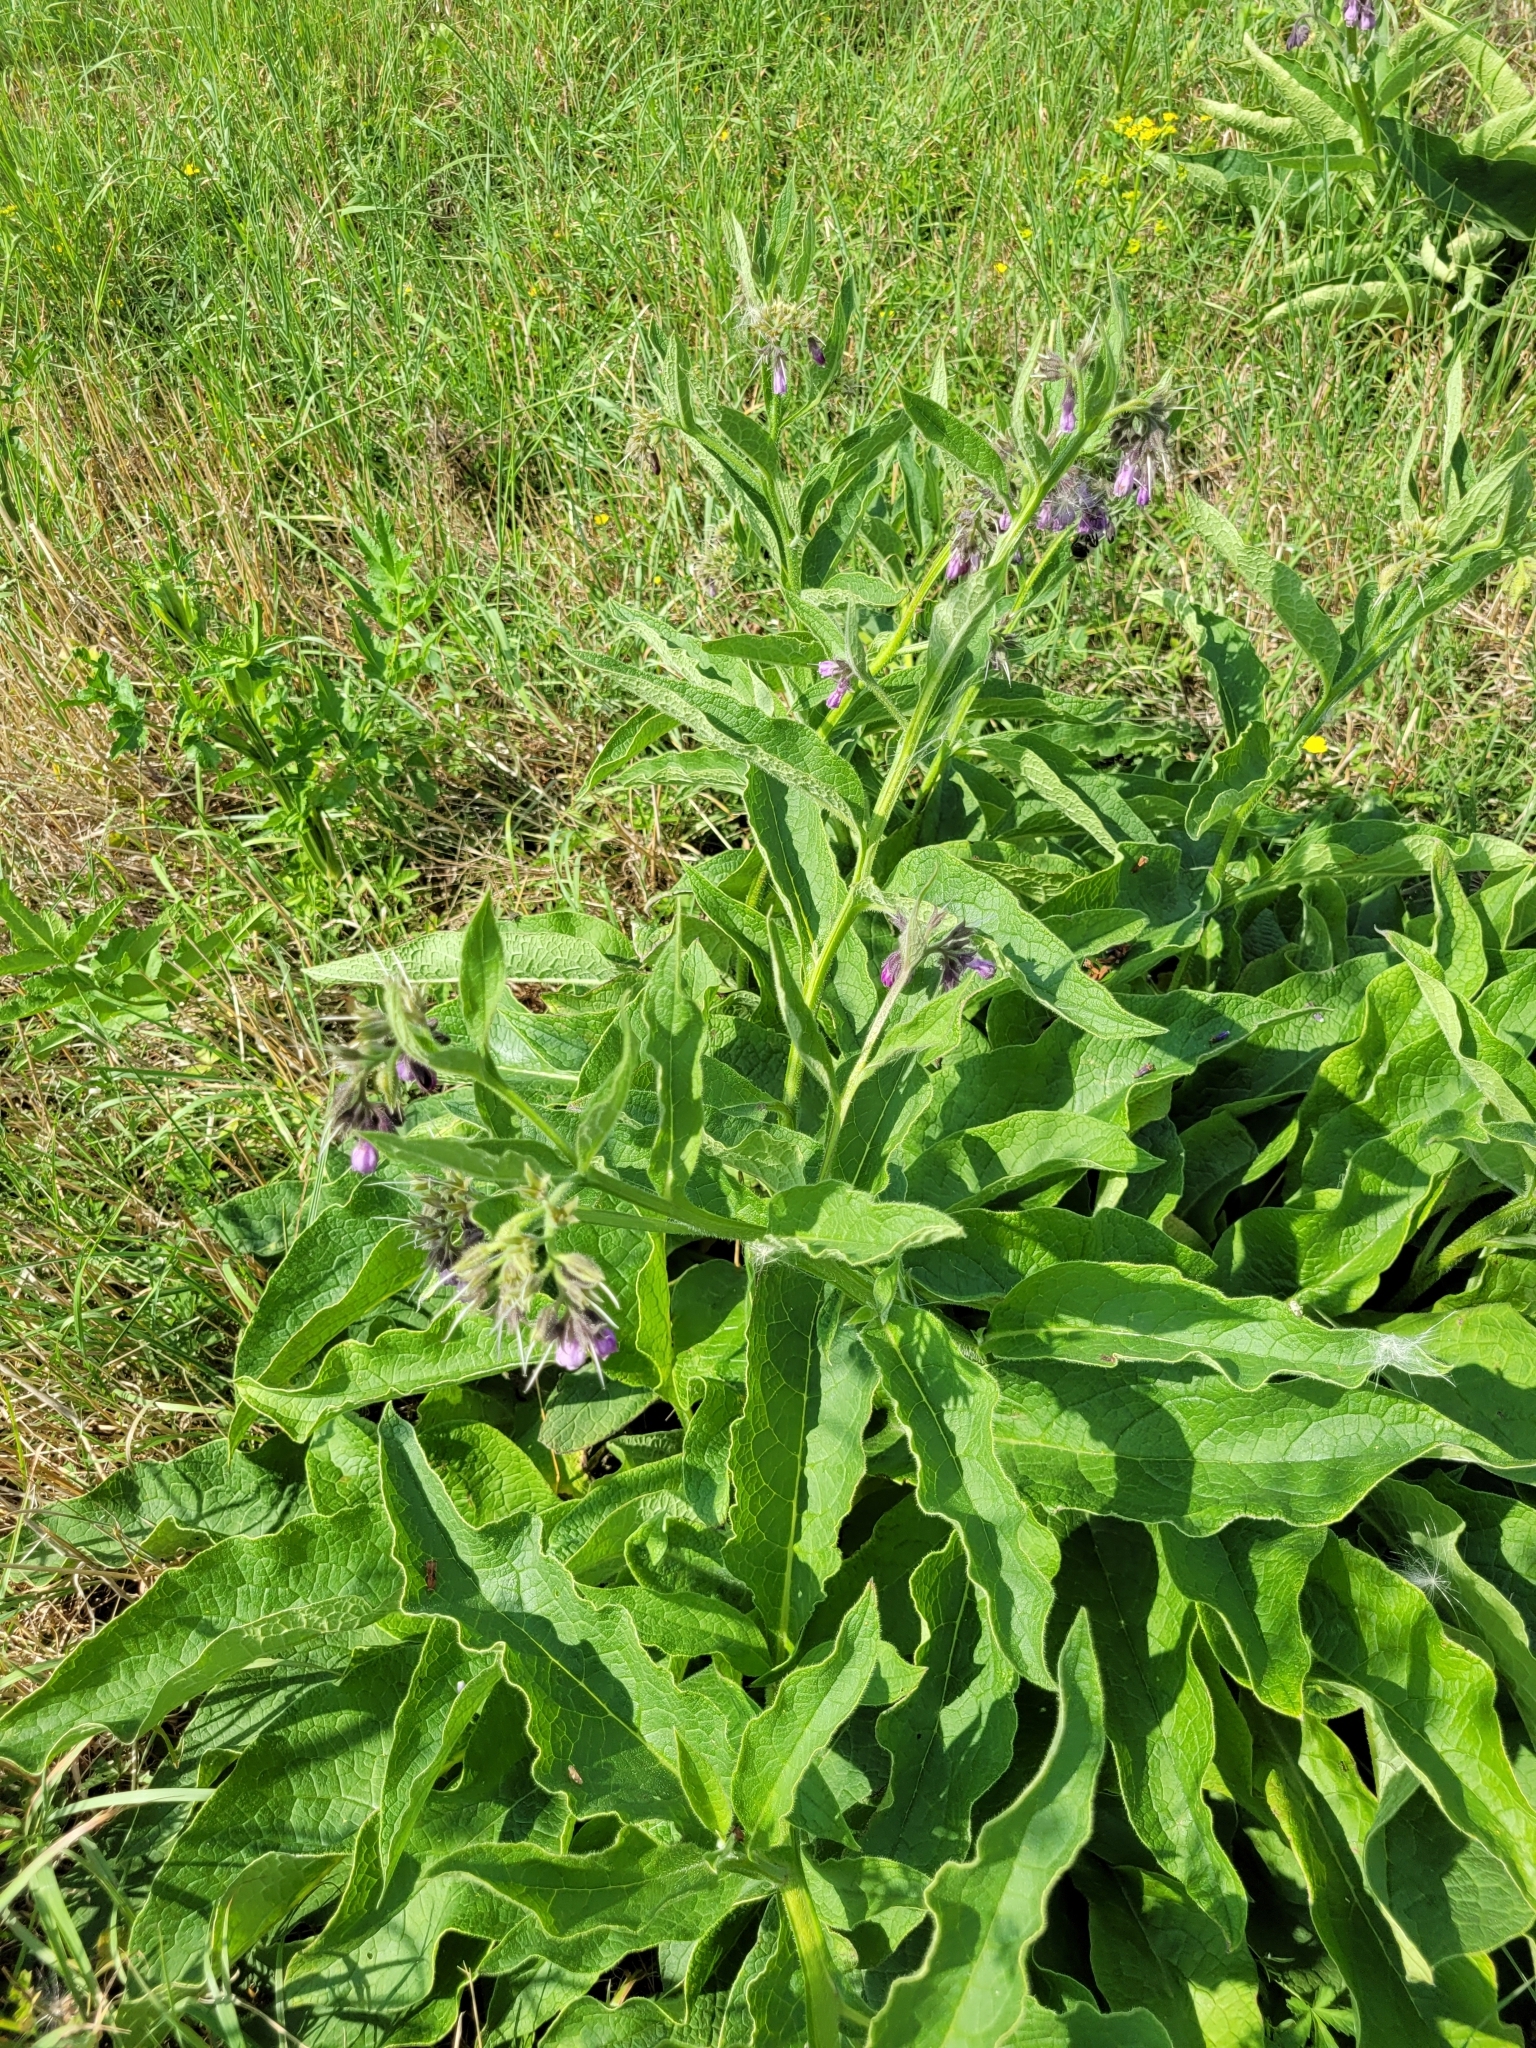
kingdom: Plantae
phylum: Tracheophyta
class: Magnoliopsida
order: Boraginales
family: Boraginaceae
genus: Symphytum
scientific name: Symphytum officinale
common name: Common comfrey
